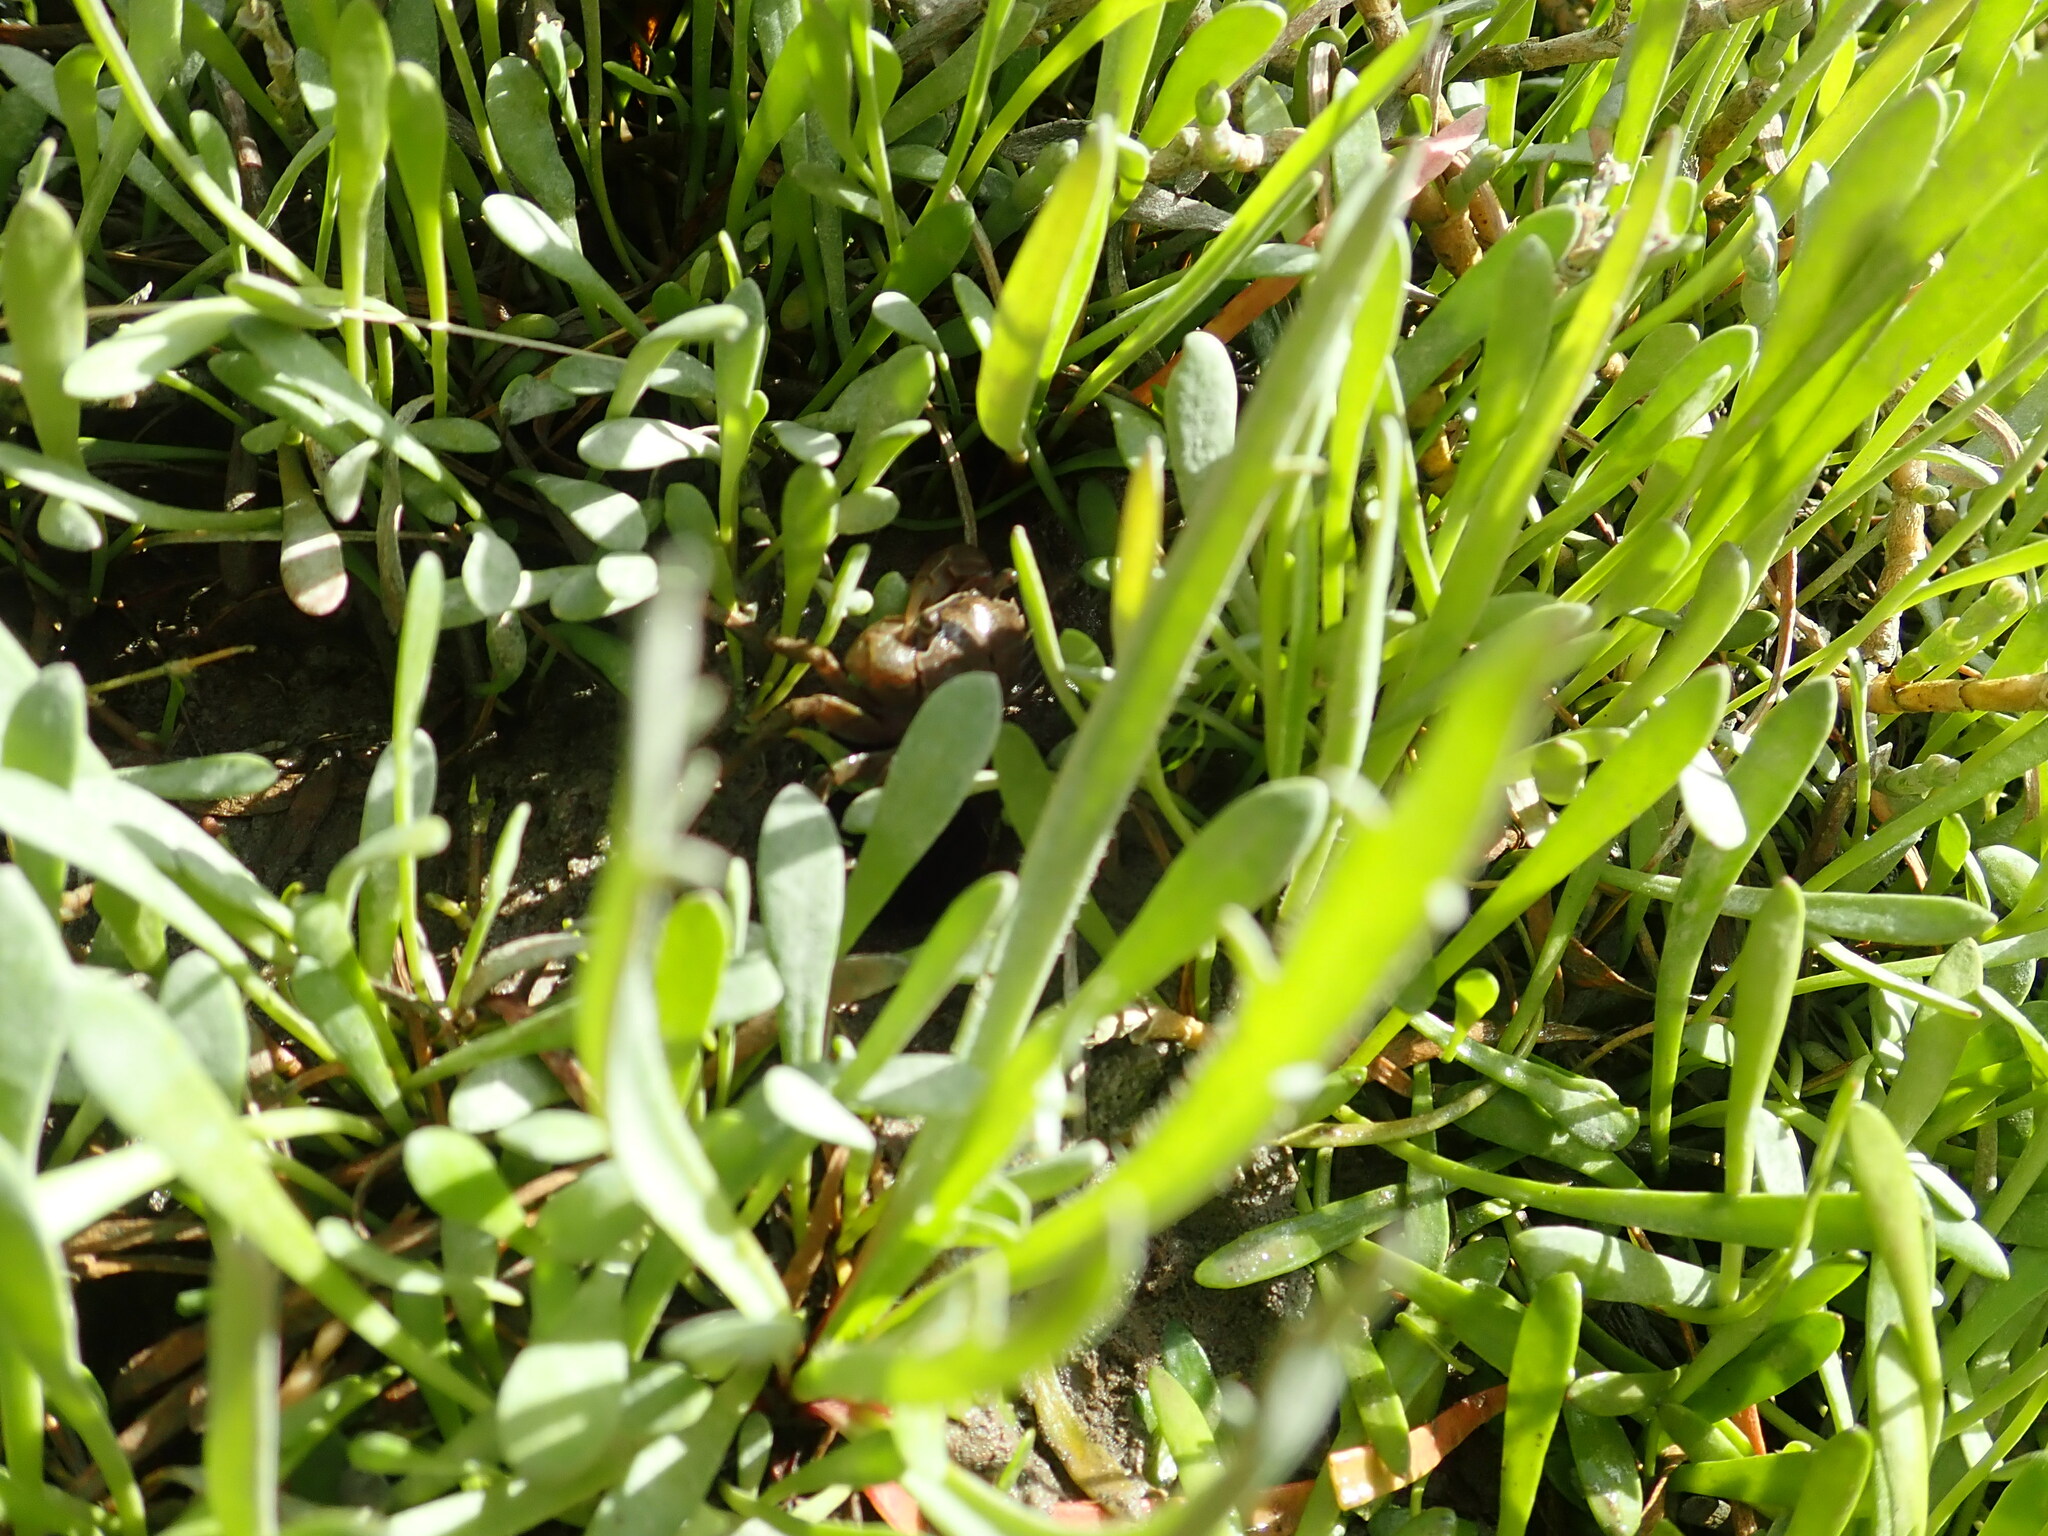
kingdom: Animalia
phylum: Arthropoda
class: Malacostraca
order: Decapoda
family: Varunidae
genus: Austrohelice
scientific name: Austrohelice crassa
